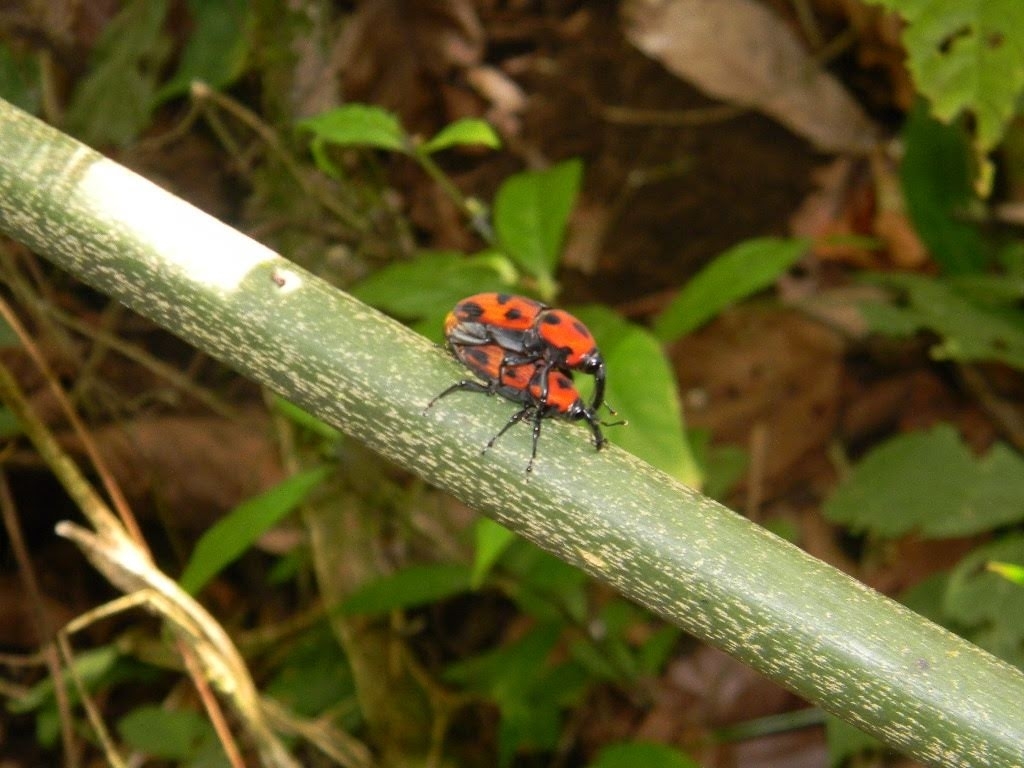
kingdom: Animalia
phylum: Arthropoda
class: Insecta
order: Coleoptera
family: Dryophthoridae
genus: Metamasius
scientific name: Metamasius dimidiatipennis
